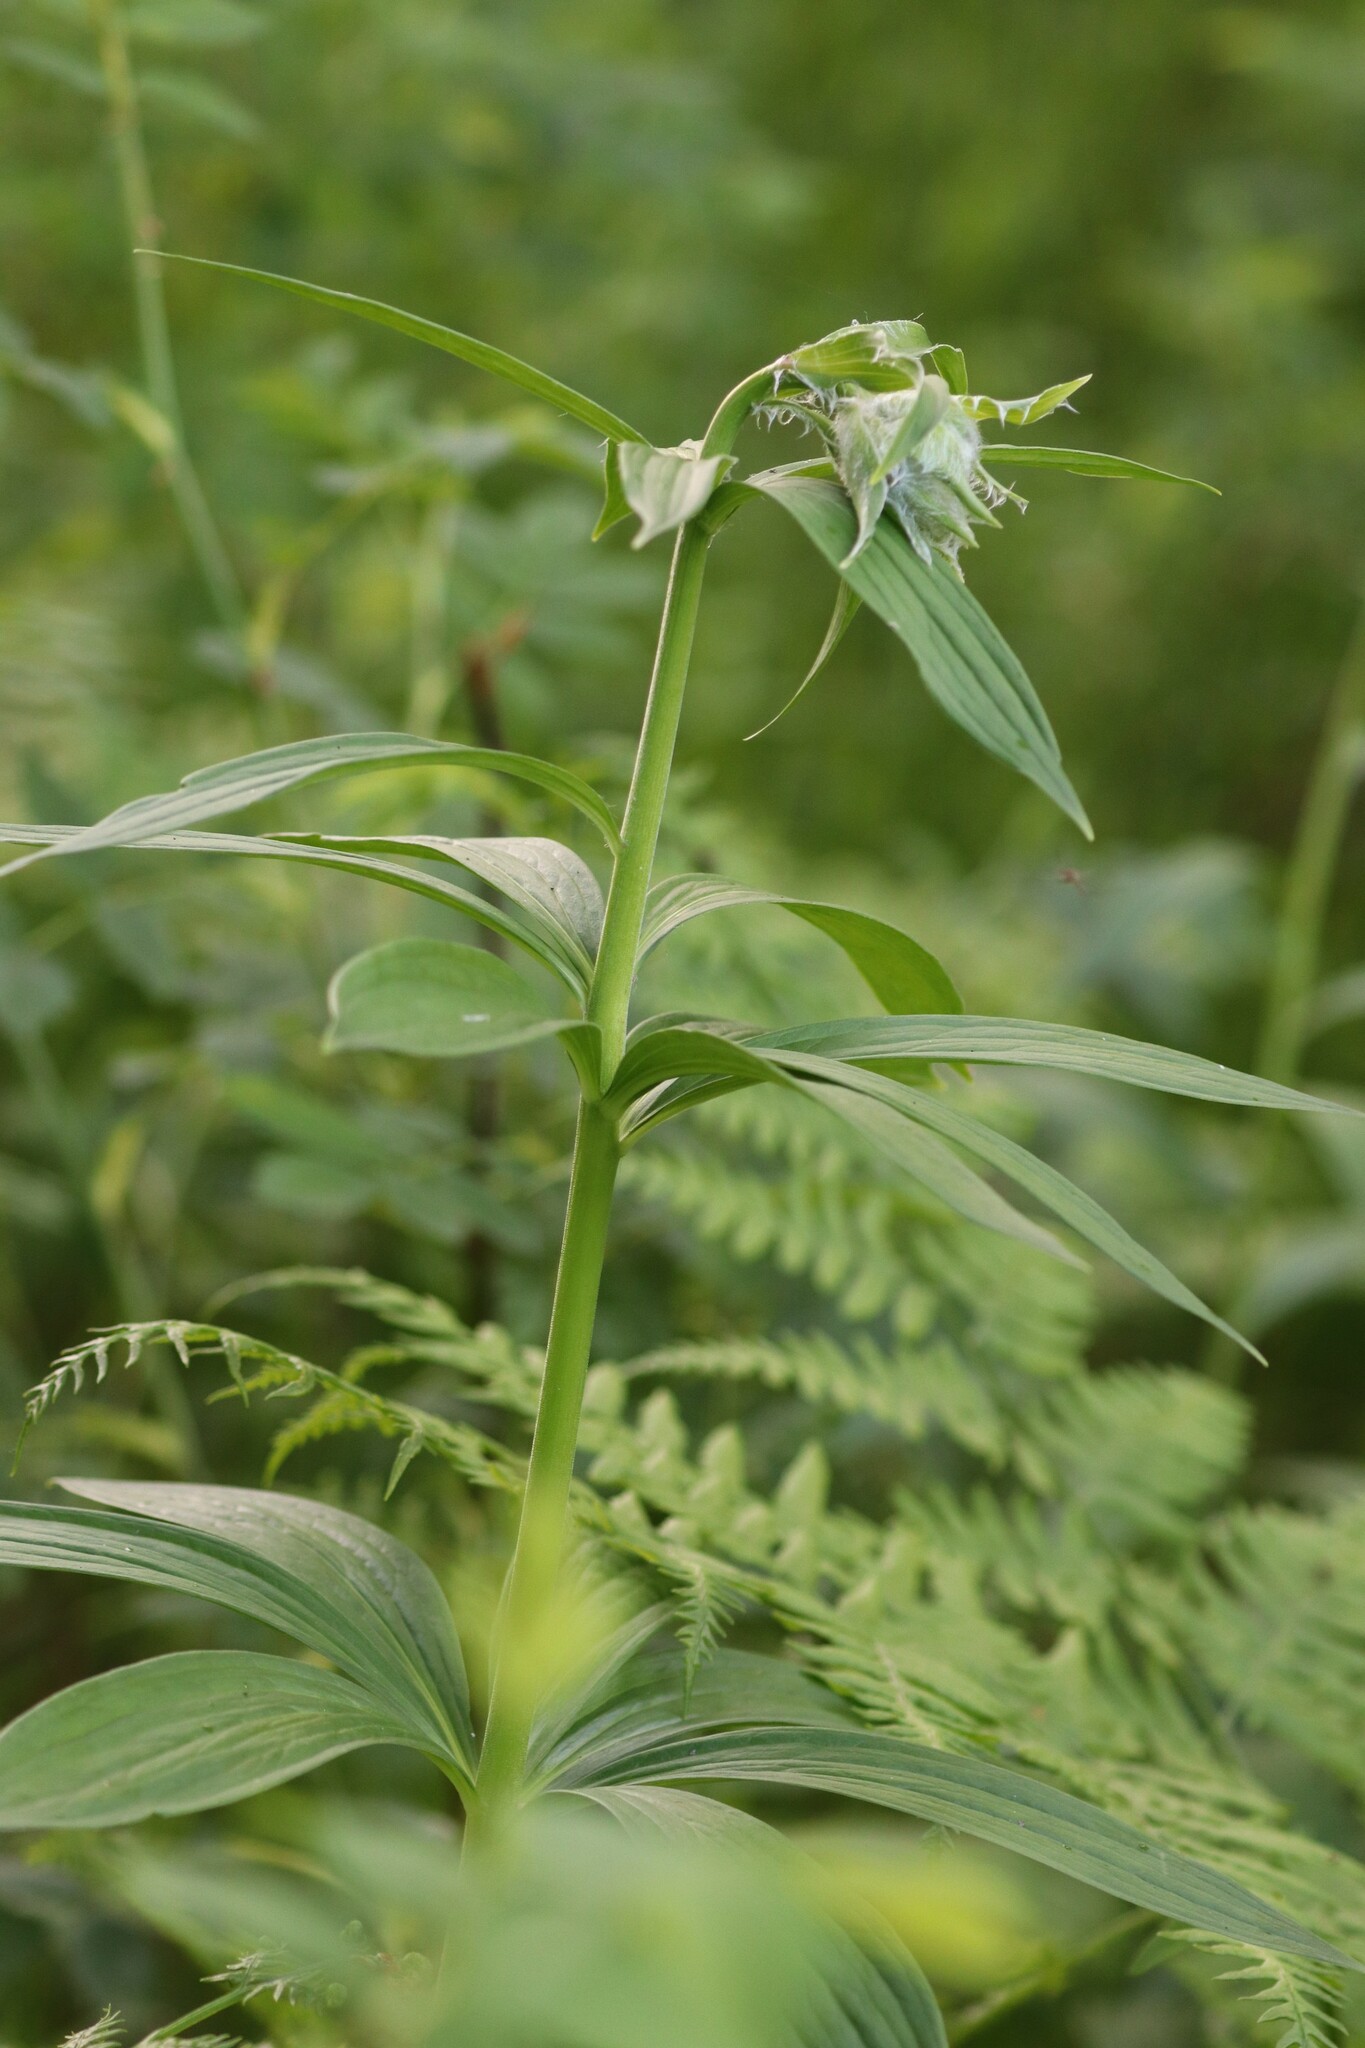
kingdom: Plantae
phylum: Tracheophyta
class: Liliopsida
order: Liliales
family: Liliaceae
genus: Lilium
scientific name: Lilium martagon
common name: Martagon lily
